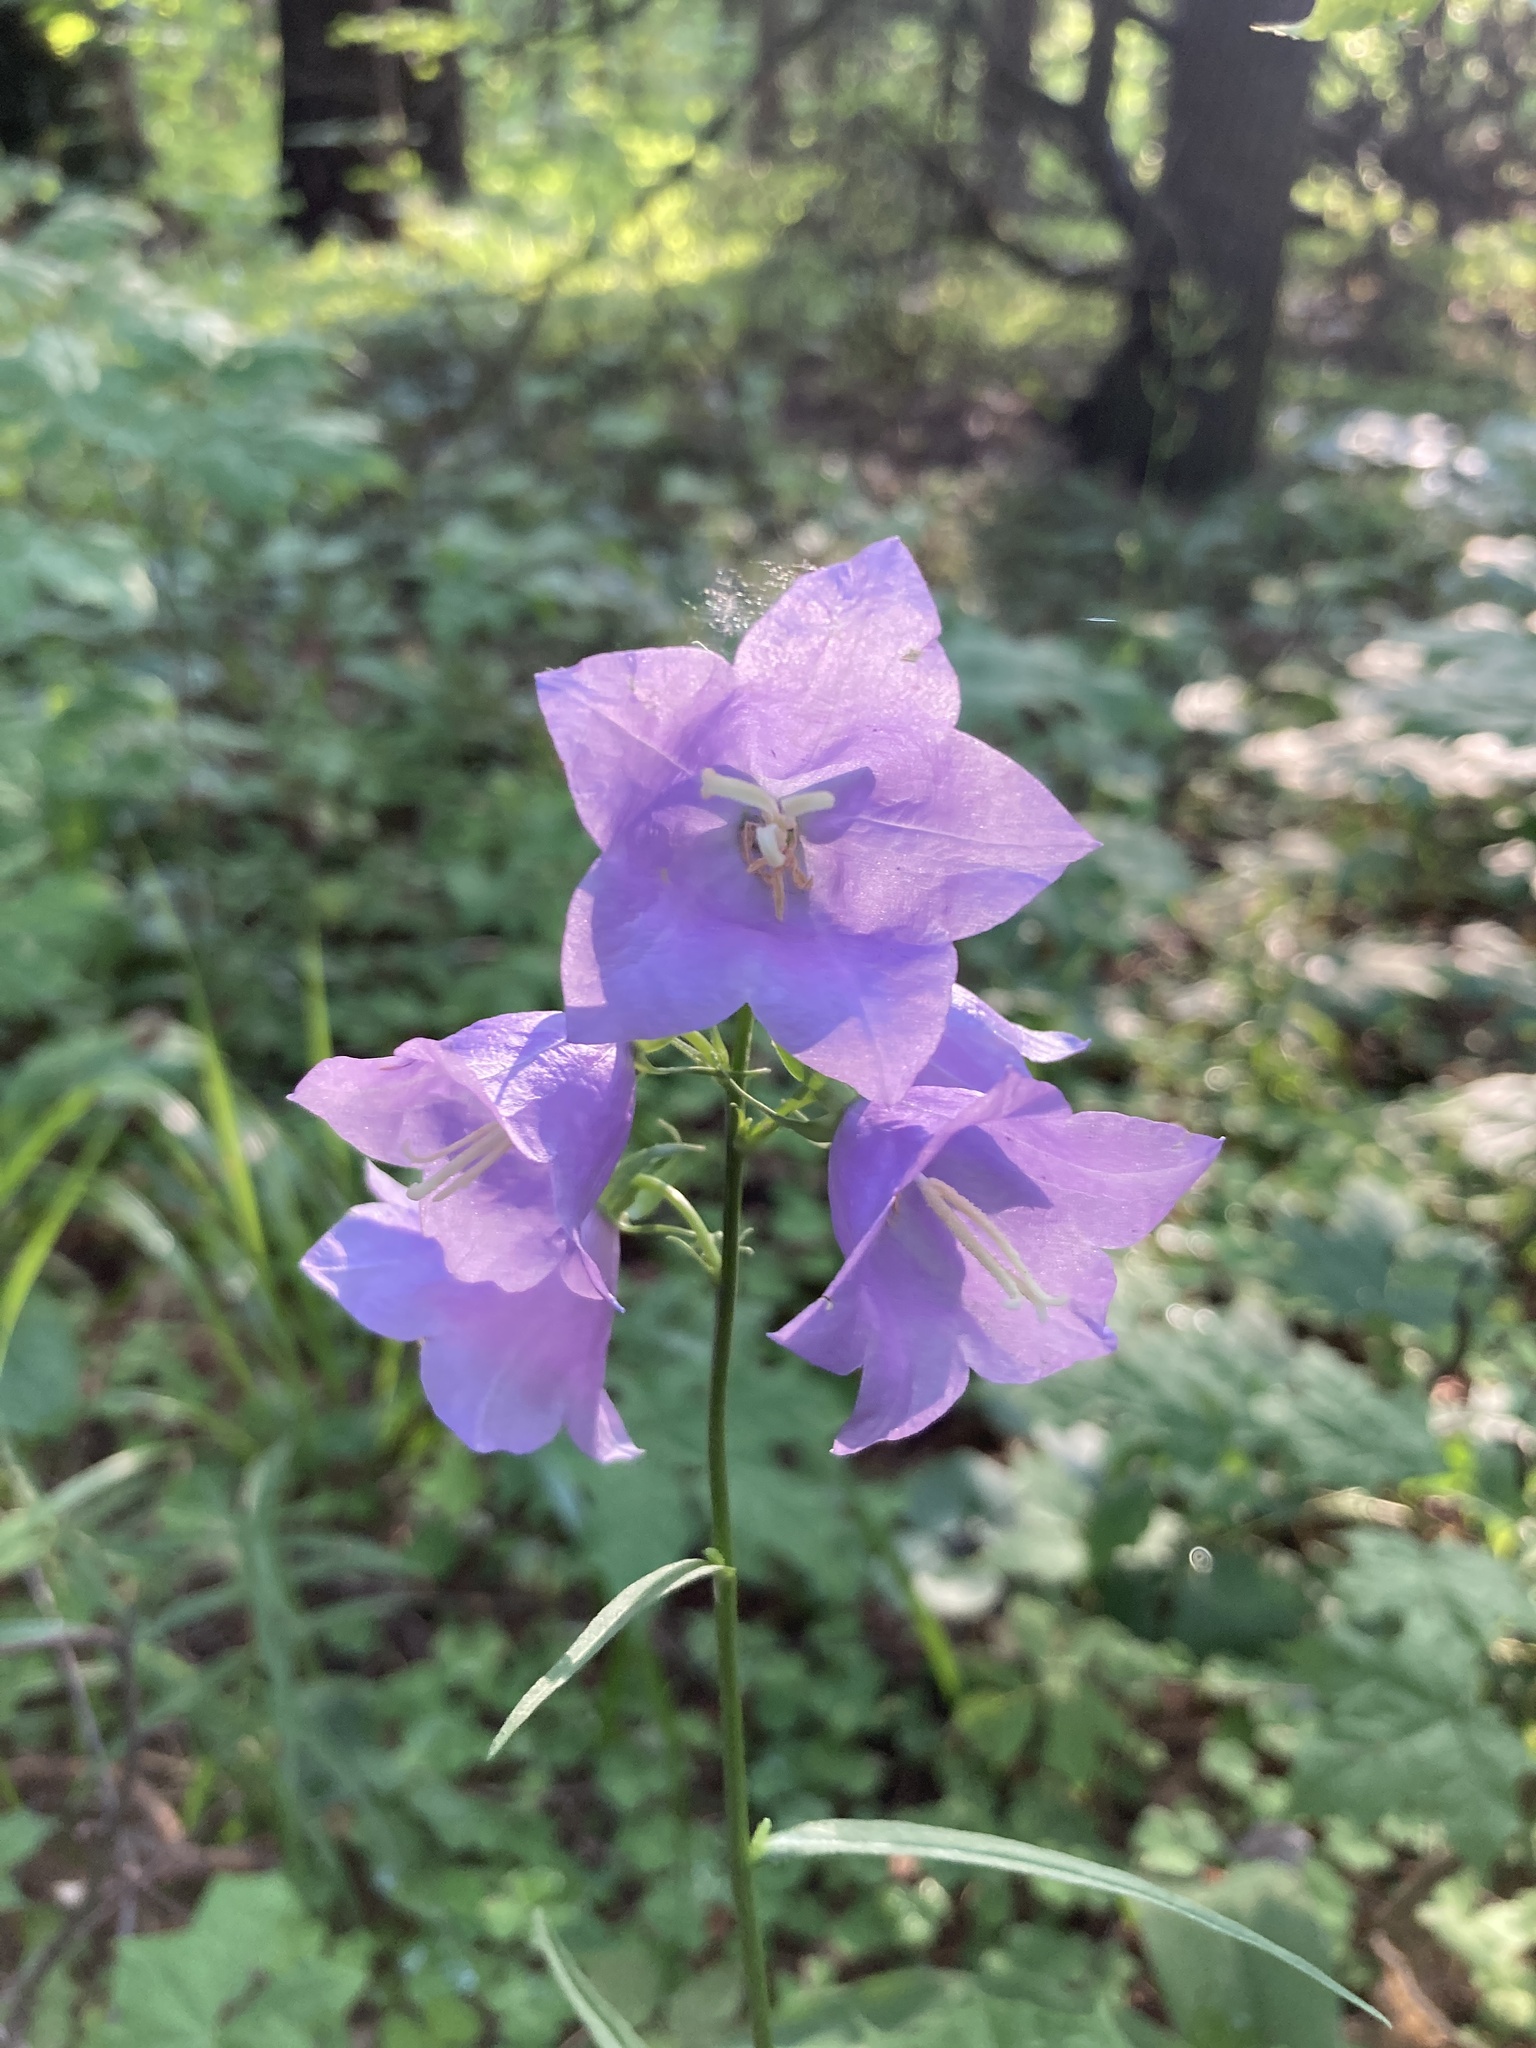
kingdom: Plantae
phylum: Tracheophyta
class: Magnoliopsida
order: Asterales
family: Campanulaceae
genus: Campanula
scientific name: Campanula persicifolia
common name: Peach-leaved bellflower
